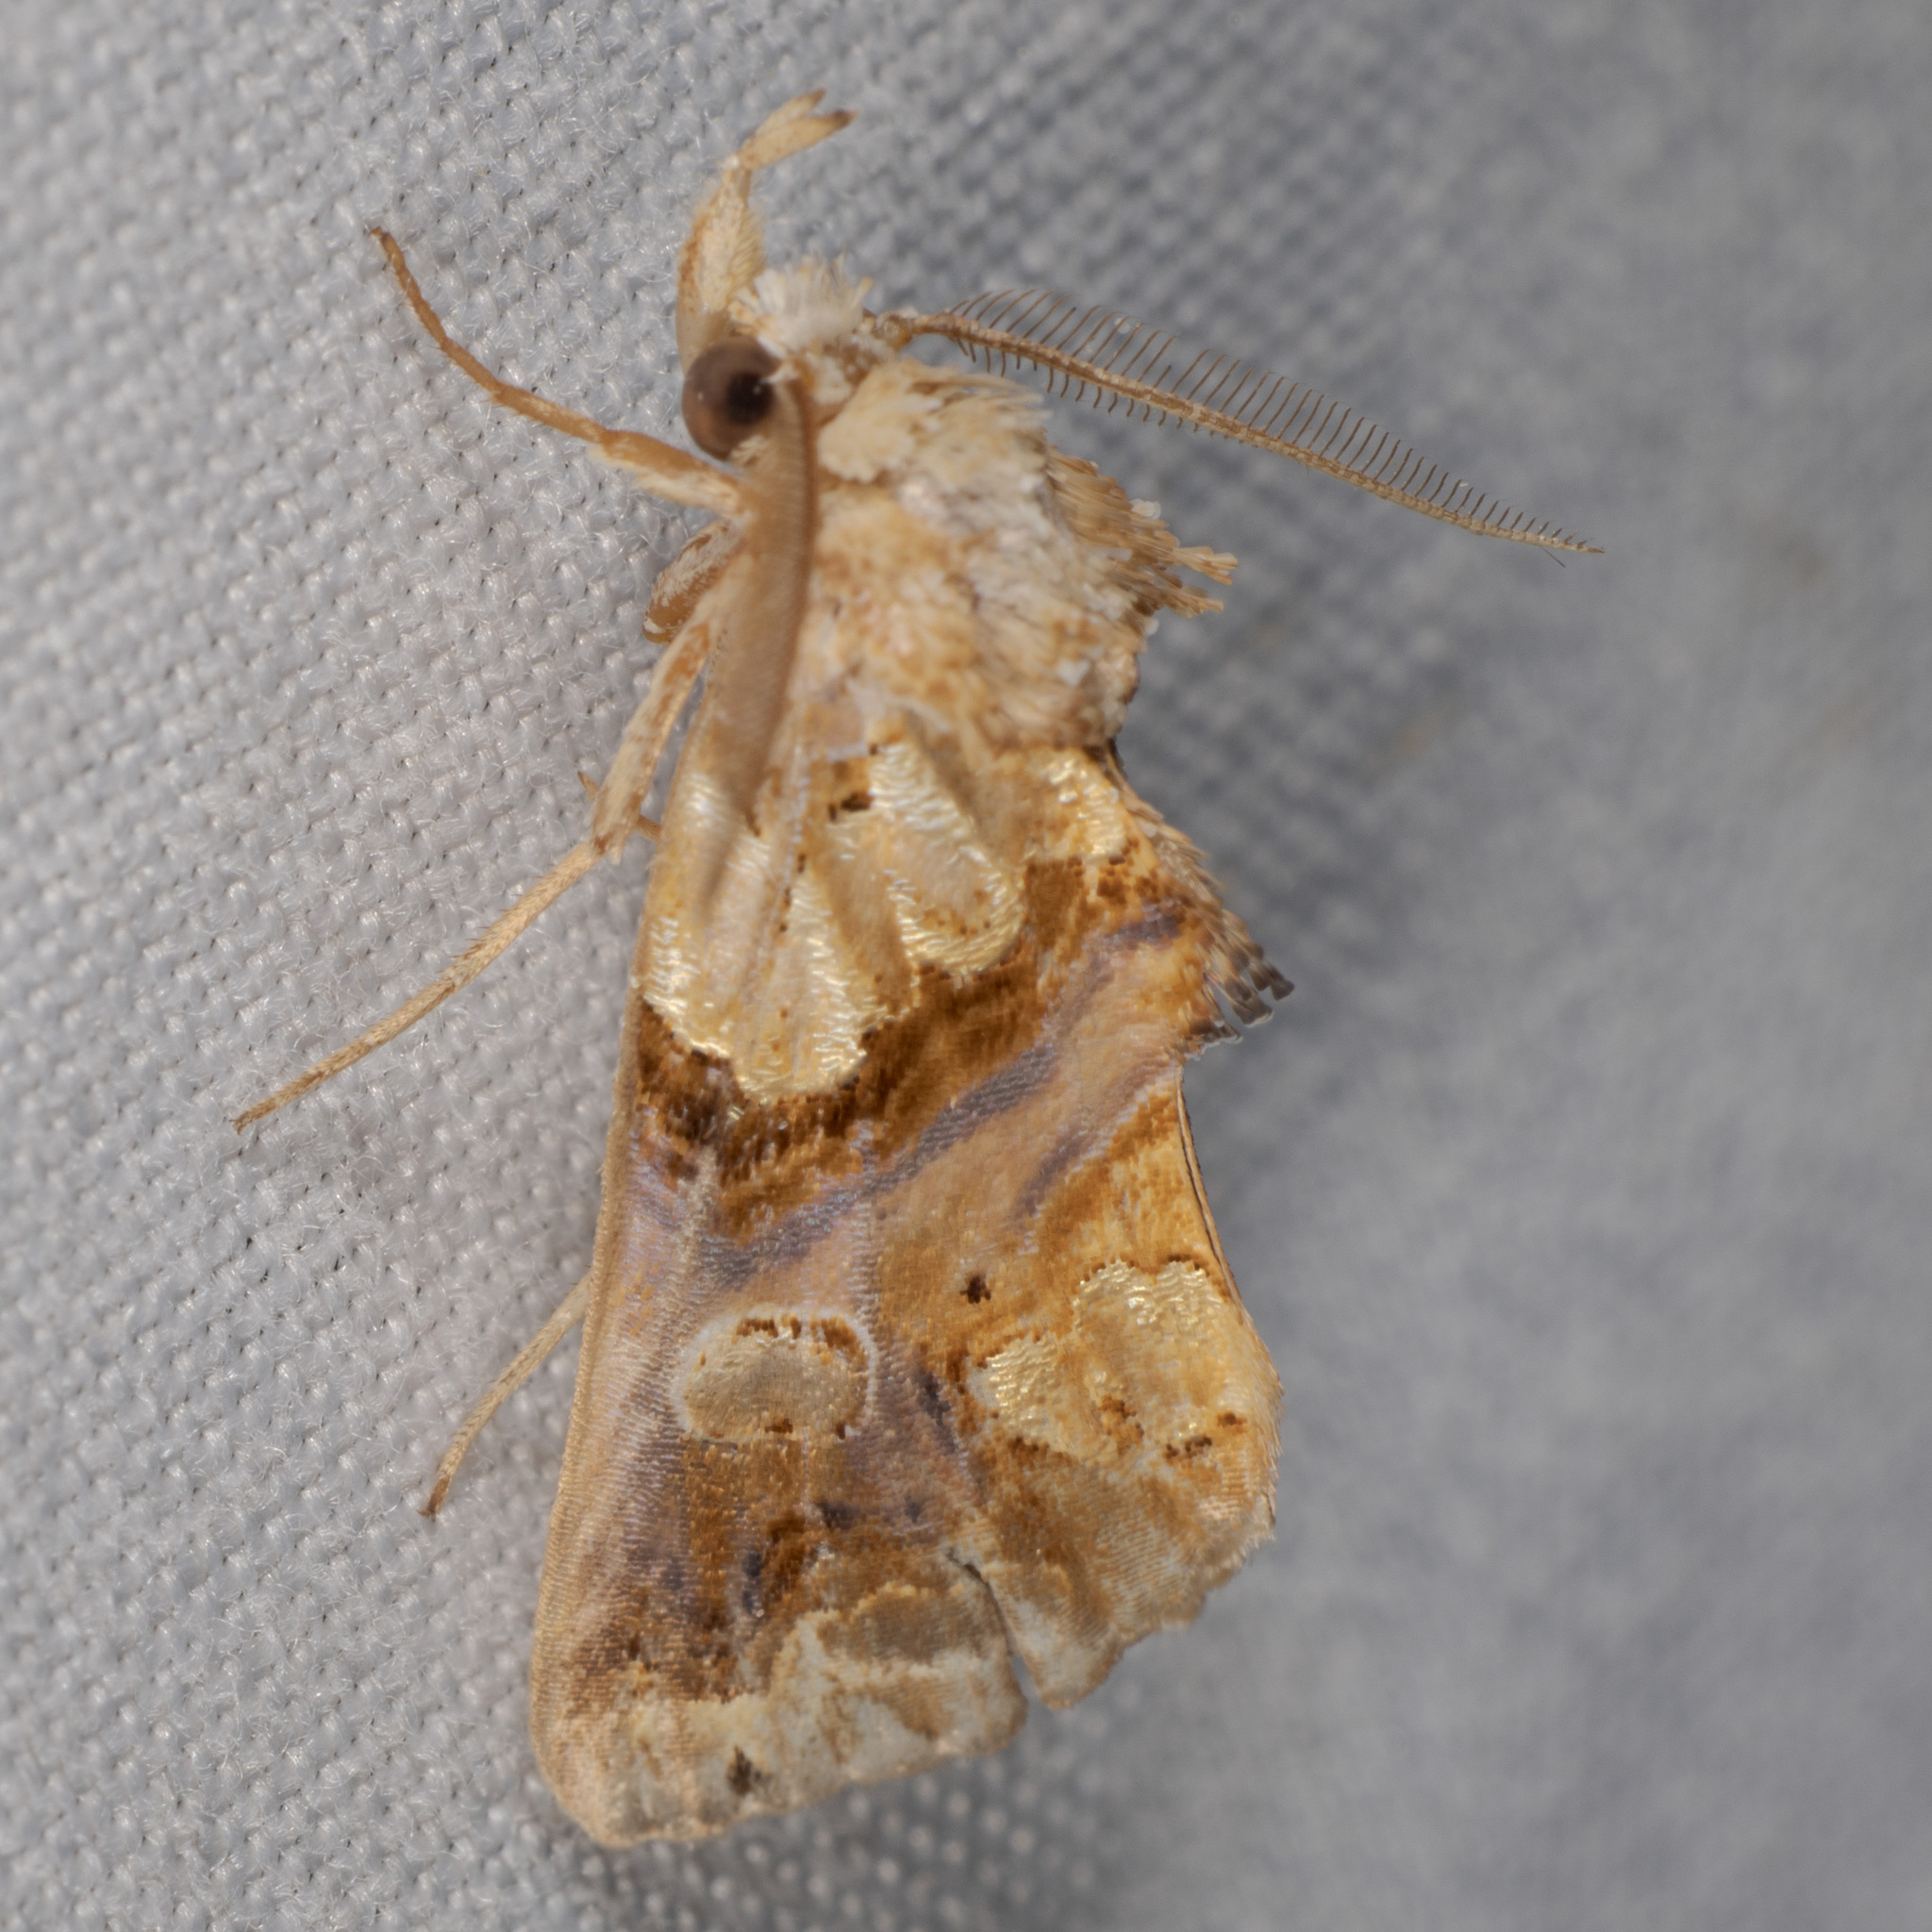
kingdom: Animalia
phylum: Arthropoda
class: Insecta
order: Lepidoptera
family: Erebidae
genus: Plusiodonta
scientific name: Plusiodonta compressipalpis
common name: Moonseed moth
